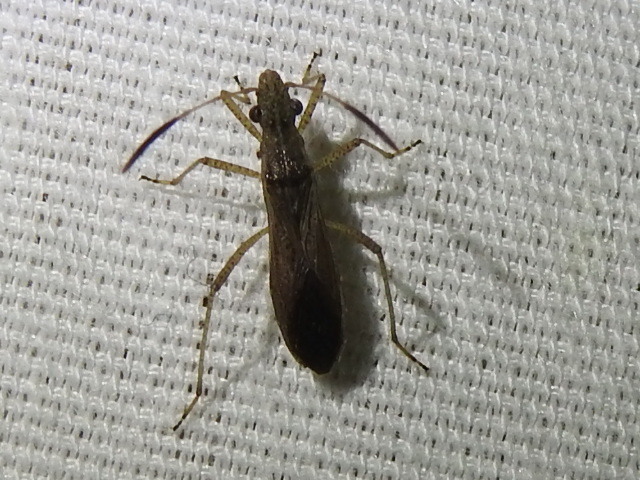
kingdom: Animalia
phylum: Arthropoda
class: Insecta
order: Hemiptera
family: Alydidae
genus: Esperanza
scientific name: Esperanza texana
